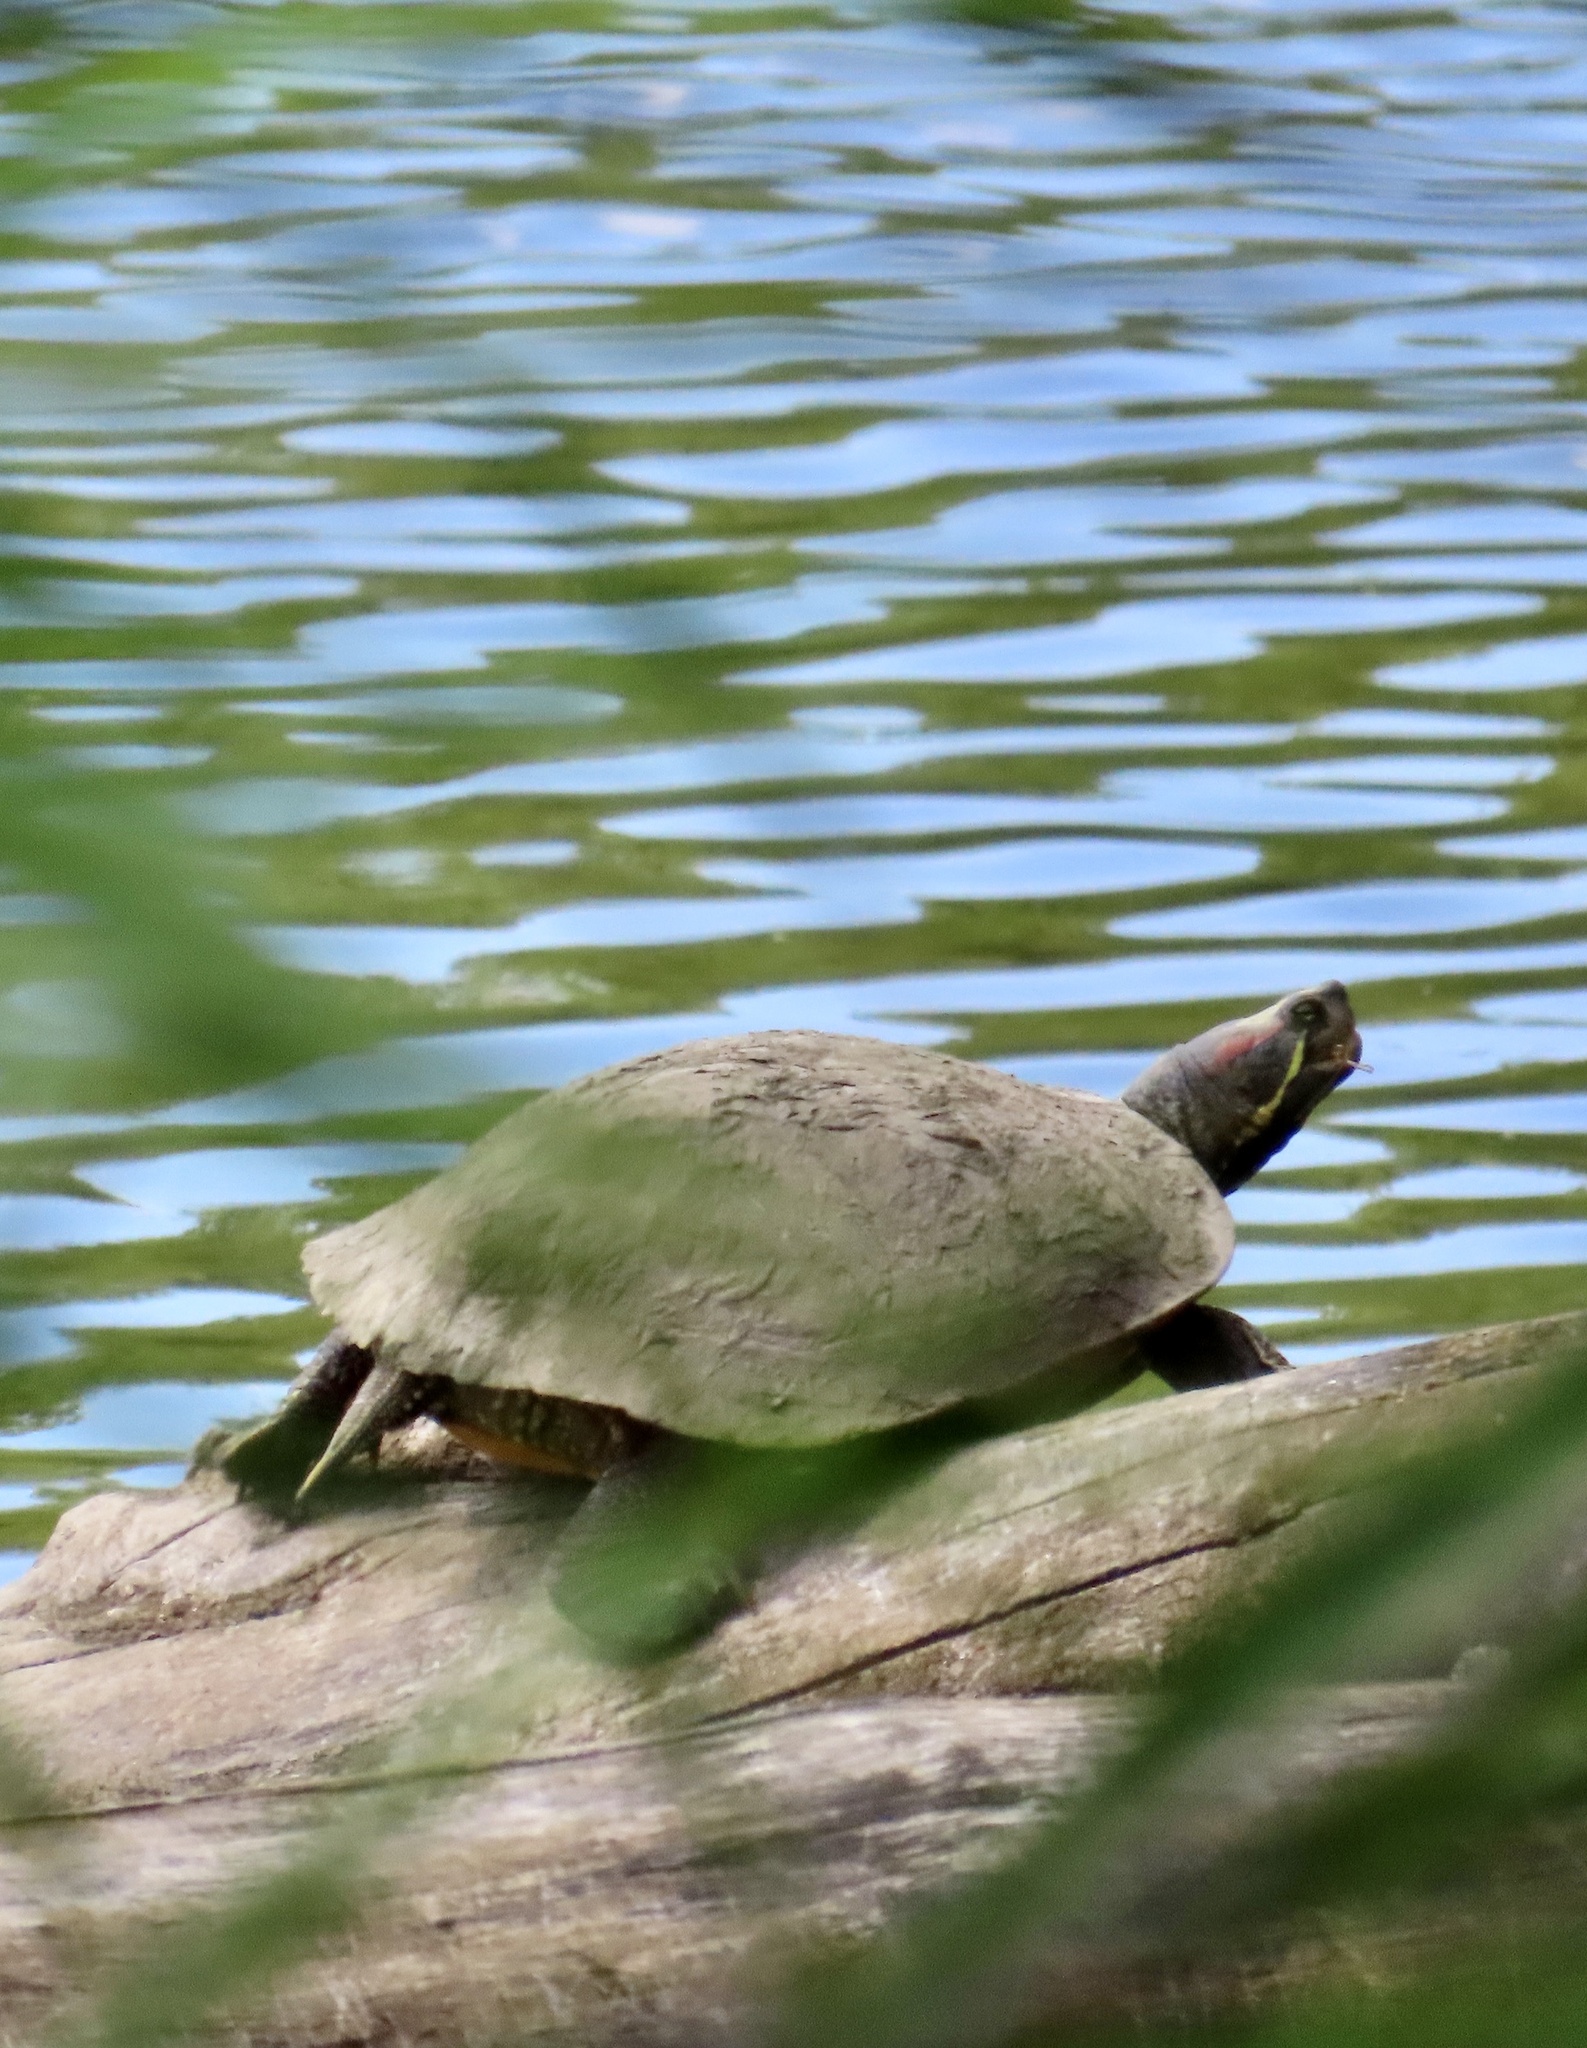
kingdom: Animalia
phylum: Chordata
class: Testudines
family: Emydidae
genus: Trachemys
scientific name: Trachemys scripta
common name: Slider
